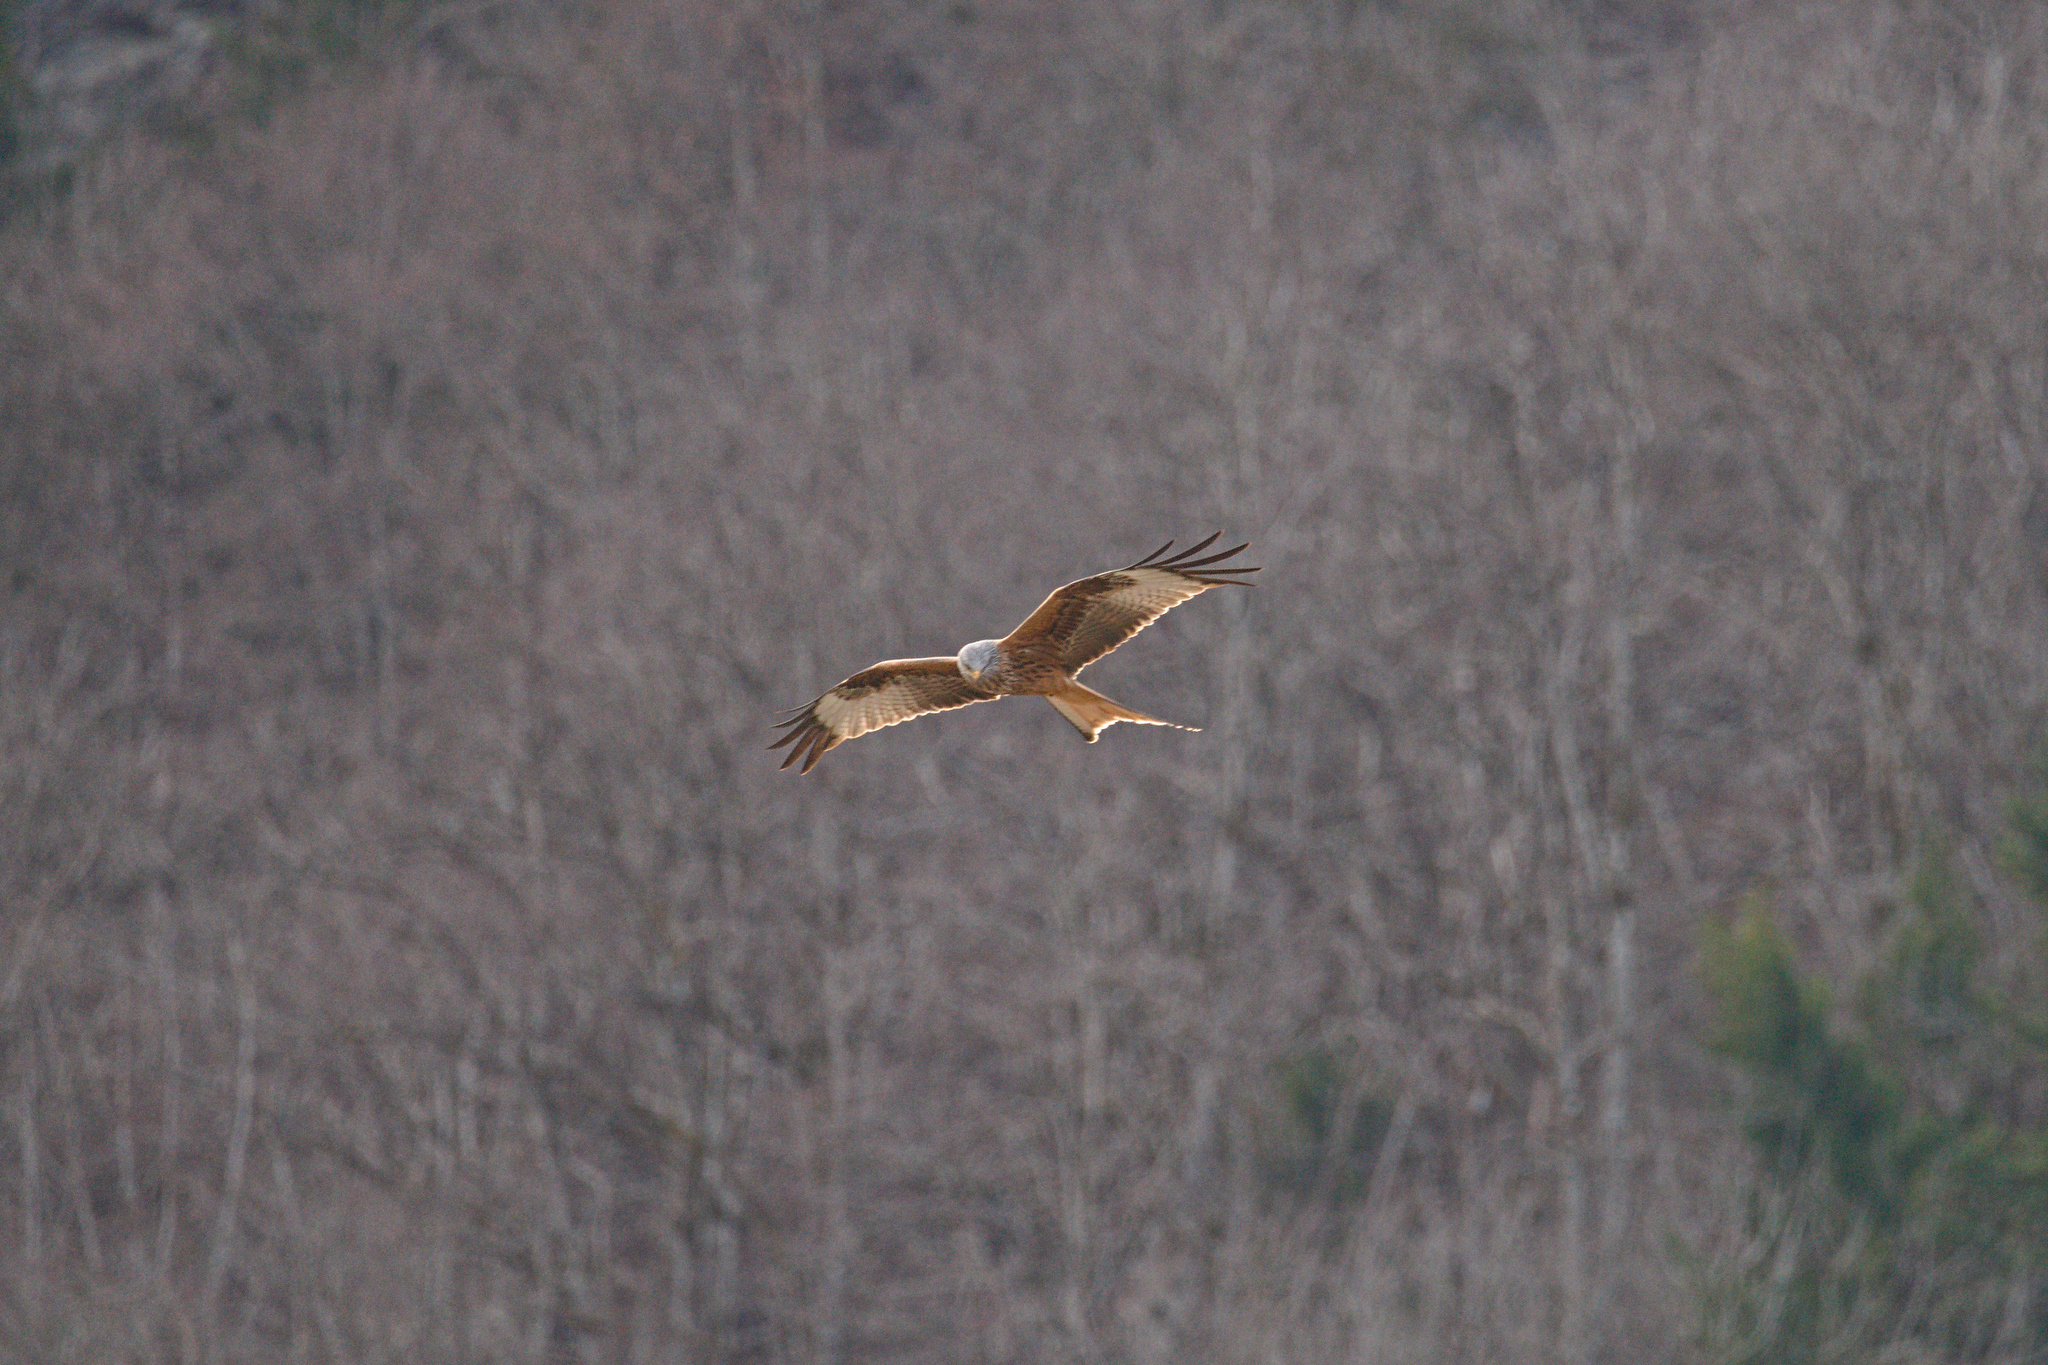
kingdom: Animalia
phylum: Chordata
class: Aves
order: Accipitriformes
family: Accipitridae
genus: Milvus
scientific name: Milvus milvus
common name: Red kite
